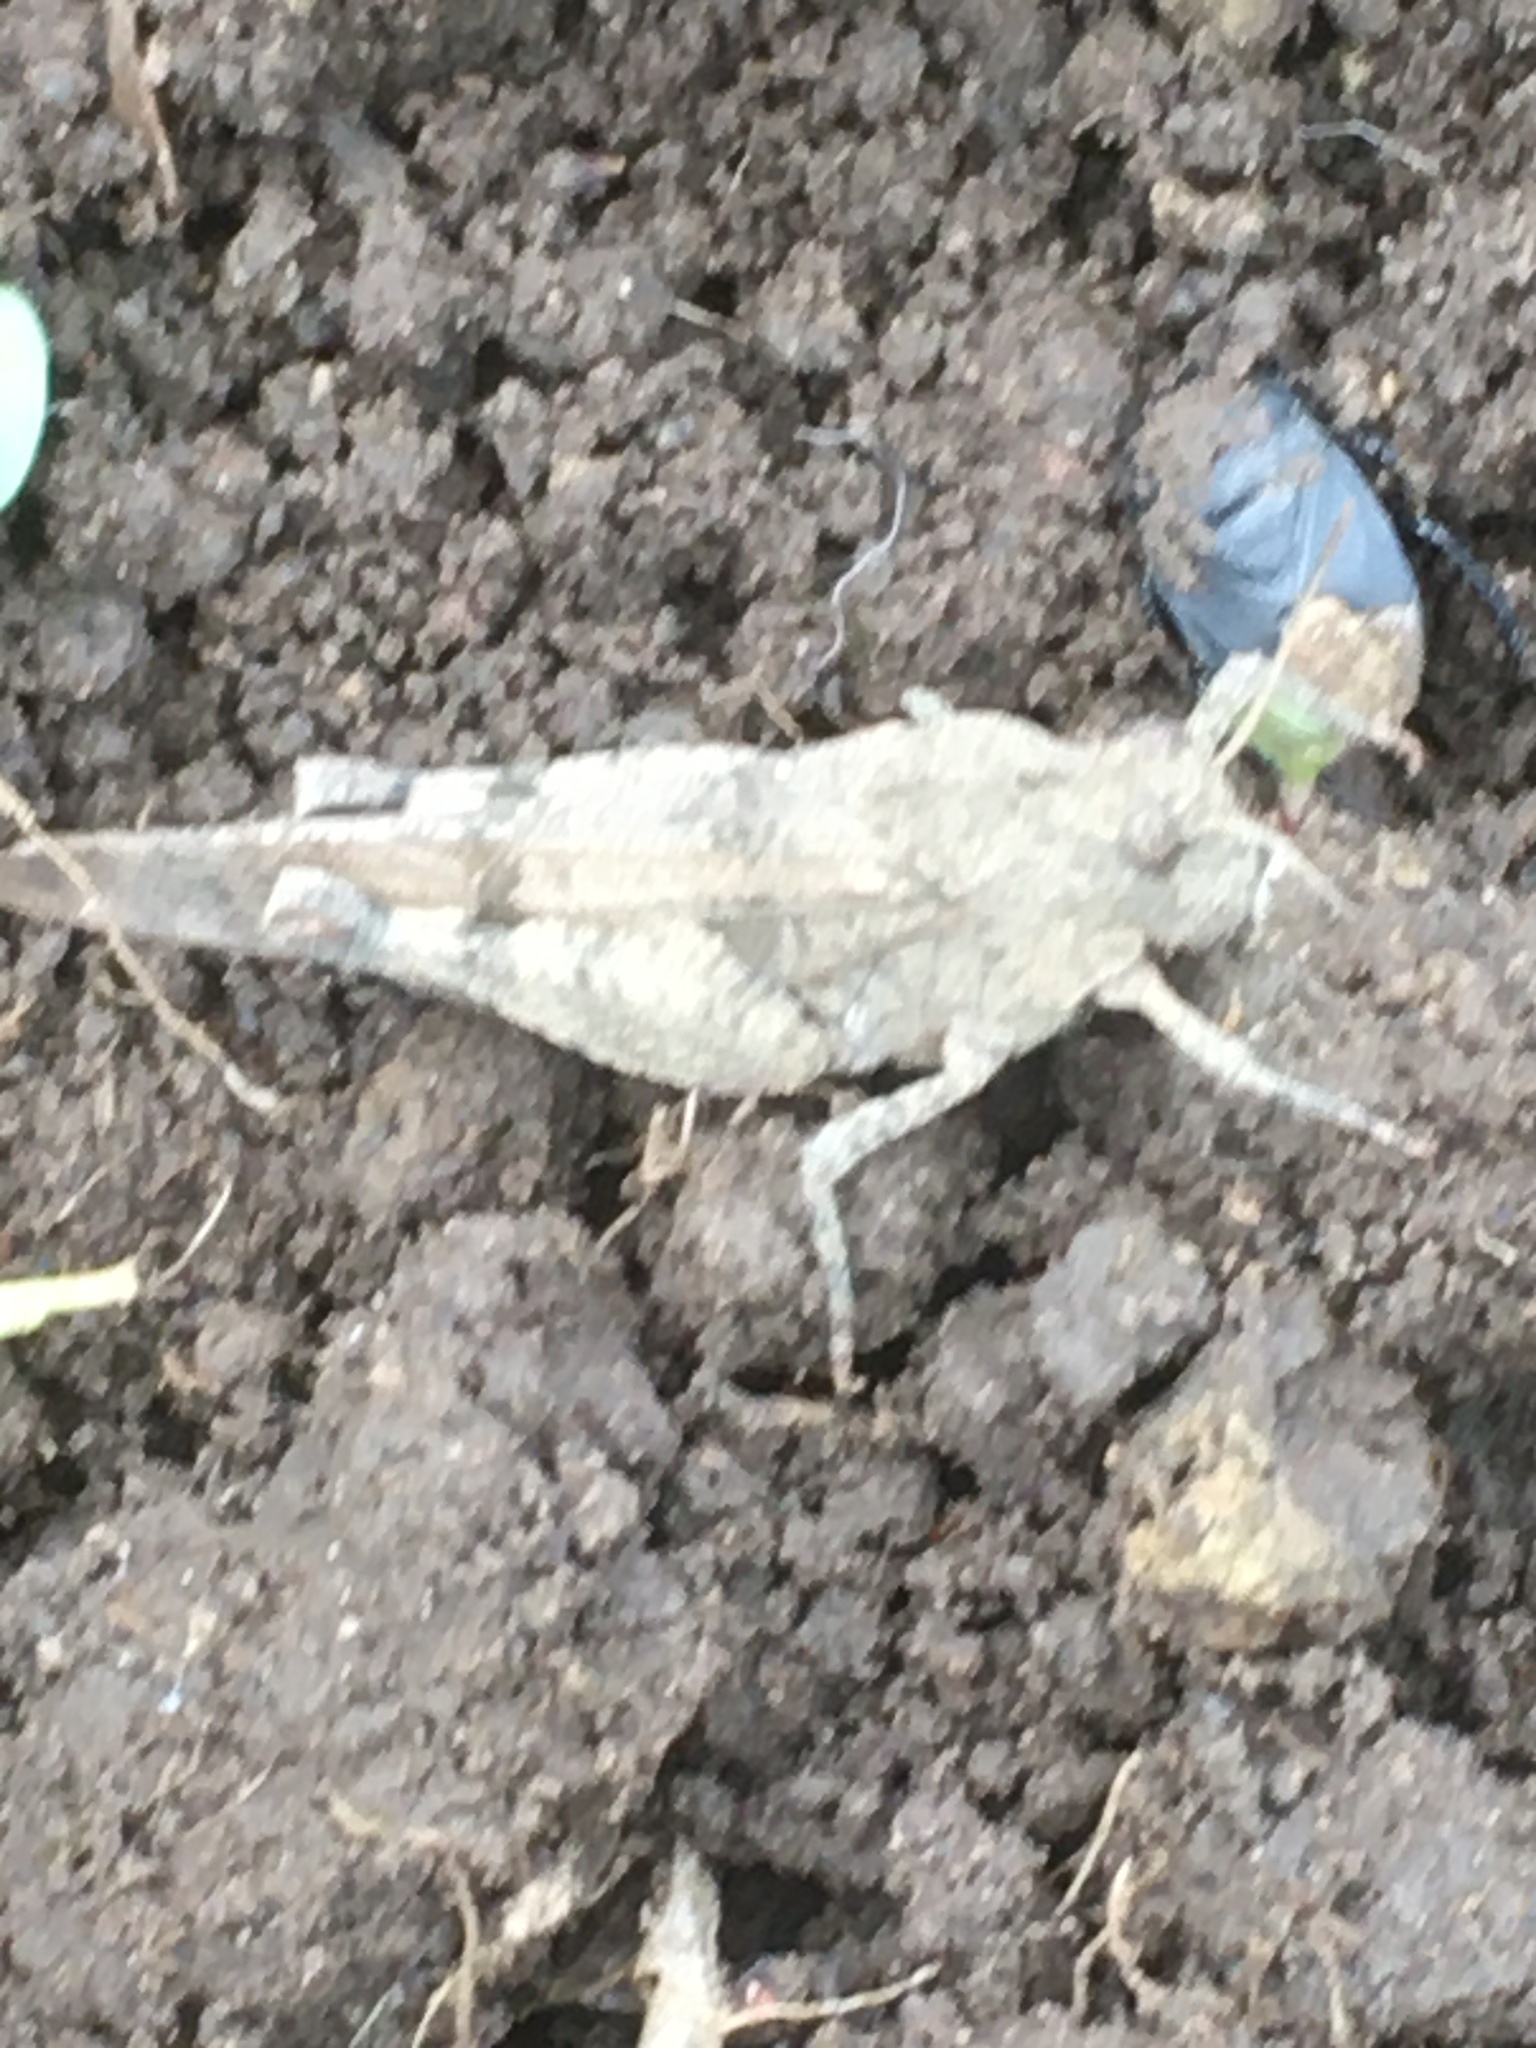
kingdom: Animalia
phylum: Arthropoda
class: Insecta
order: Orthoptera
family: Acrididae
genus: Oedipoda
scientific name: Oedipoda caerulescens
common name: Blue-winged grasshopper
